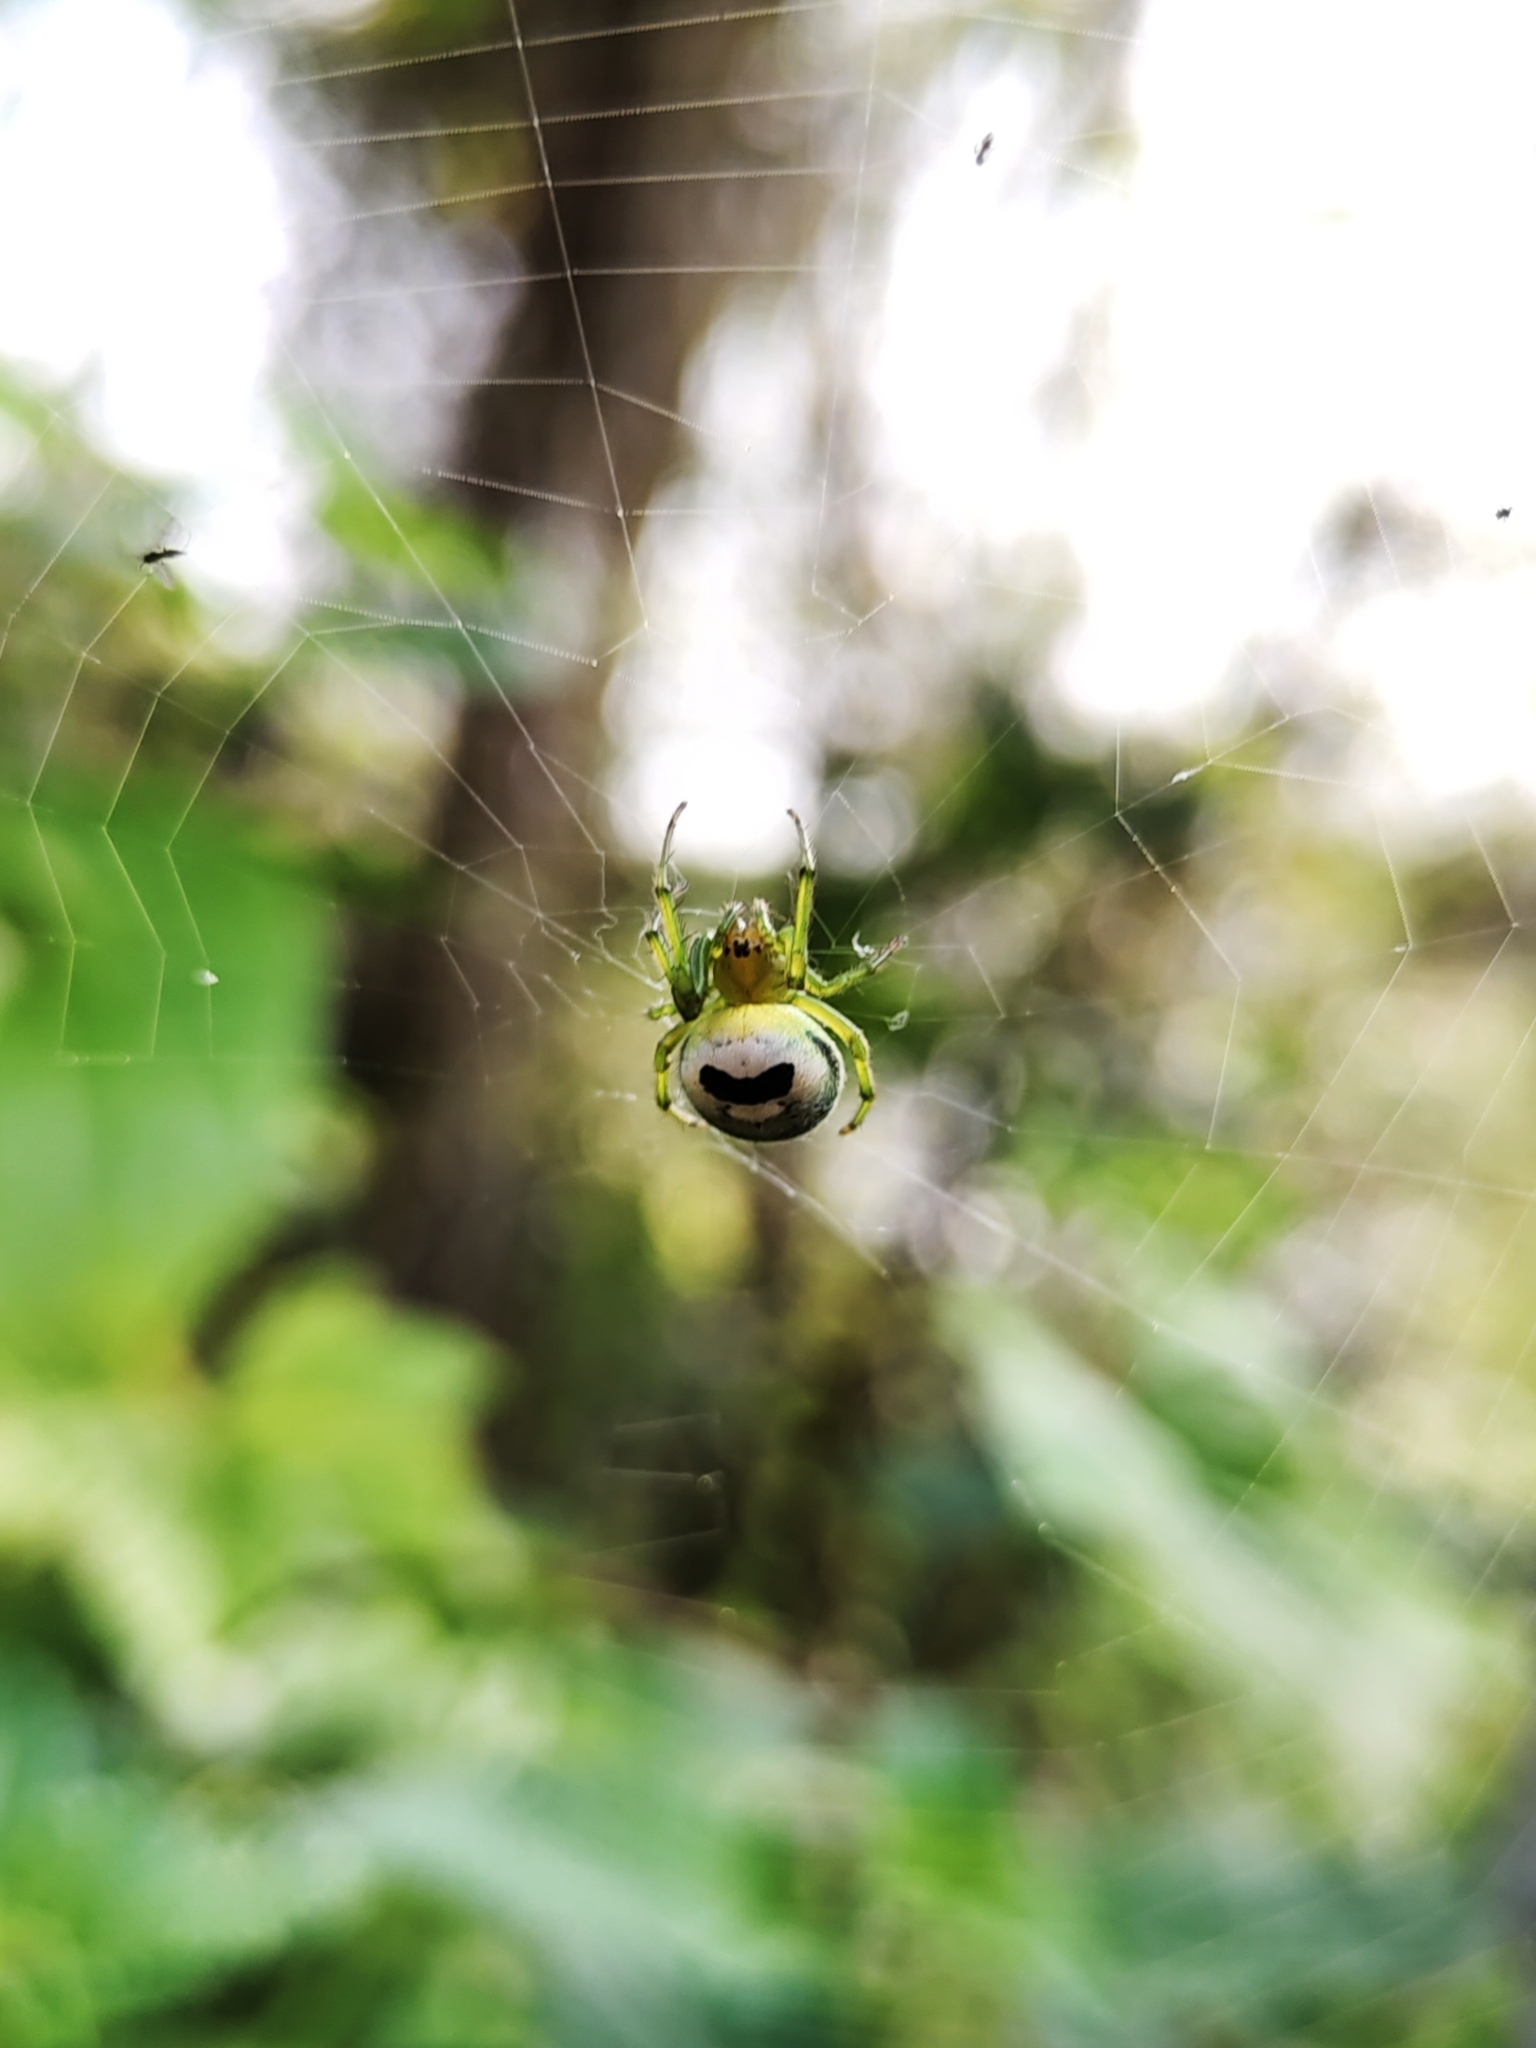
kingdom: Animalia
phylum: Arthropoda
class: Arachnida
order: Araneae
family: Araneidae
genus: Bijoaraneus
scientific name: Bijoaraneus mitificus
